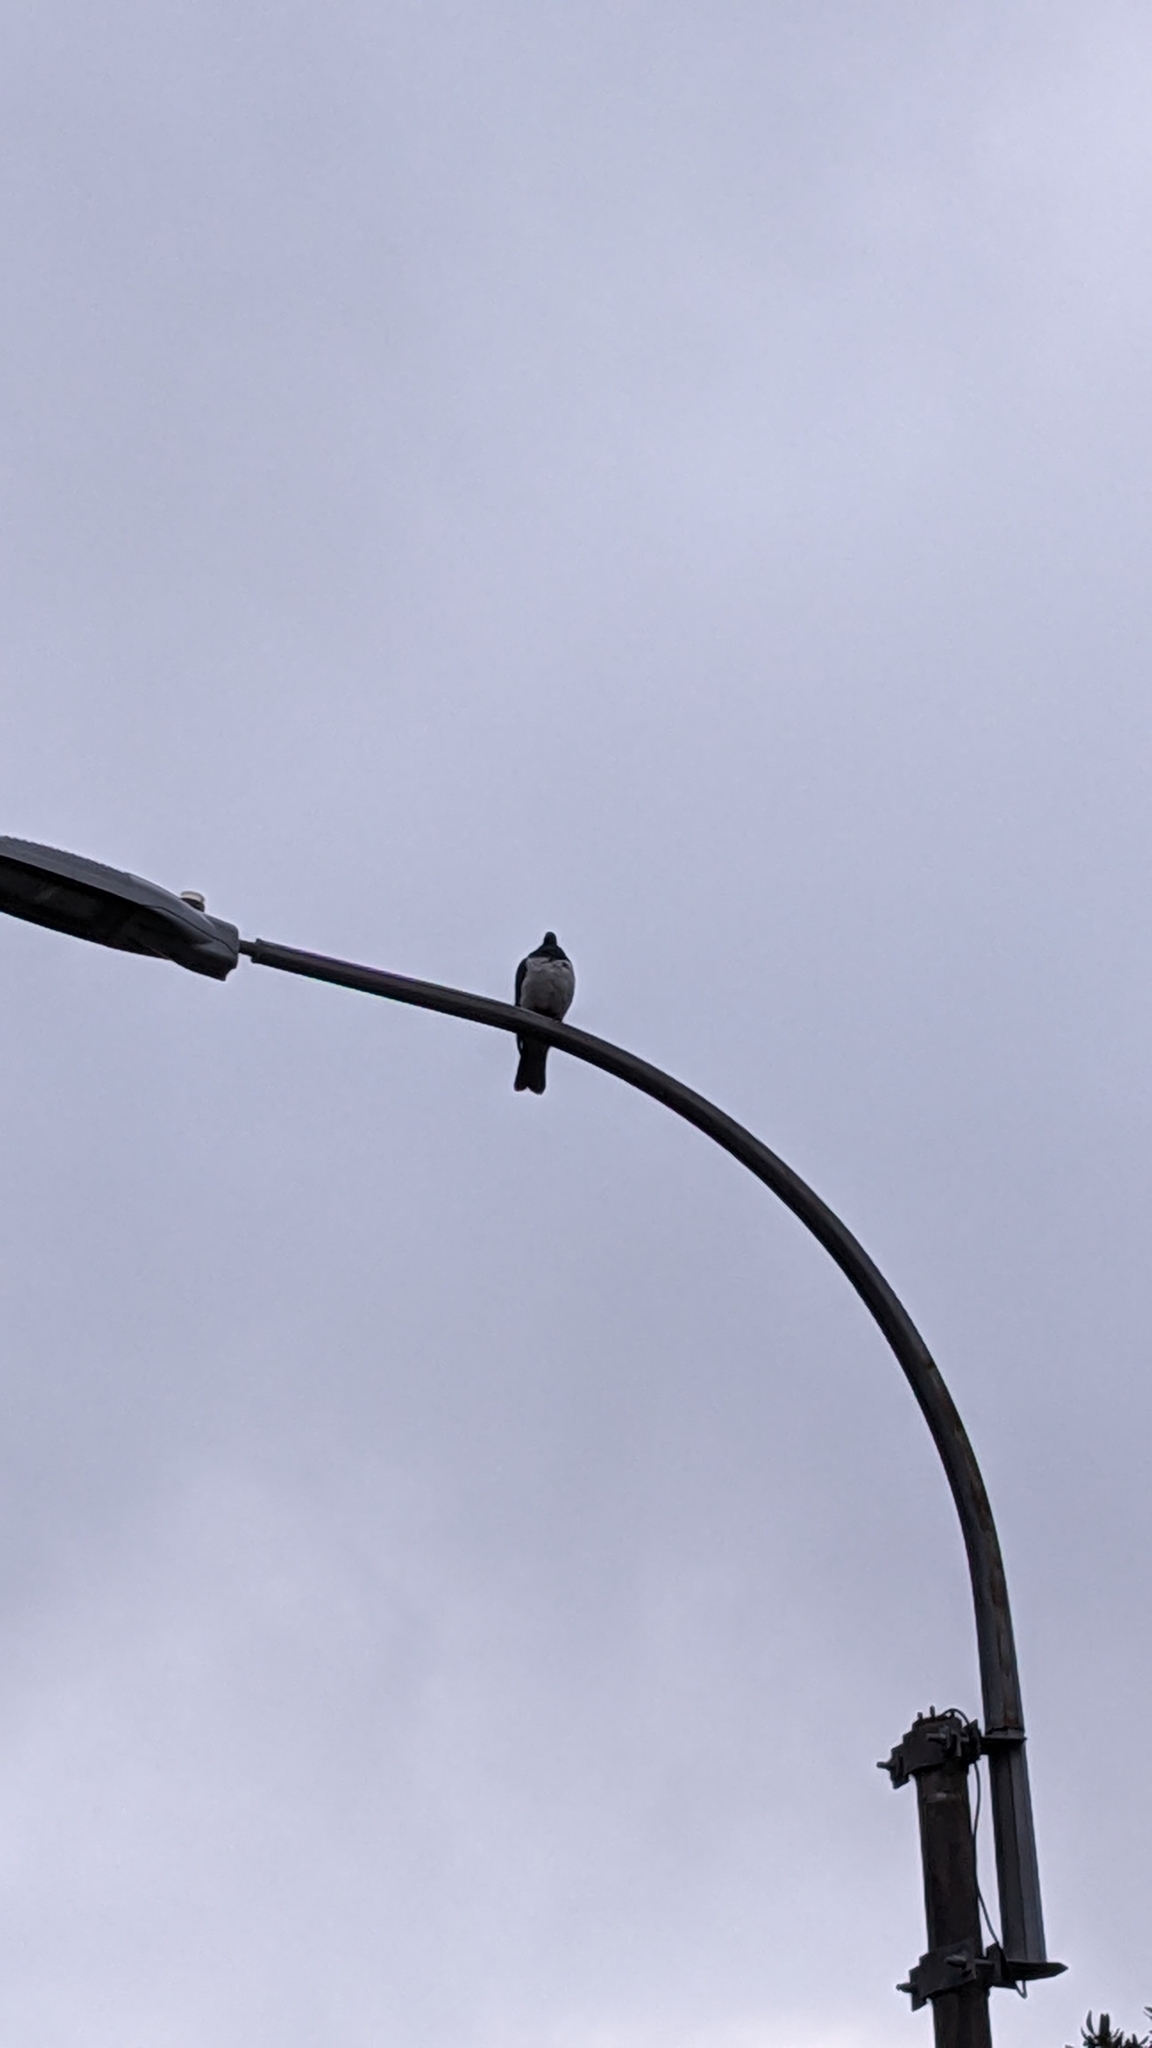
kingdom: Animalia
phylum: Chordata
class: Aves
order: Columbiformes
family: Columbidae
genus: Hemiphaga
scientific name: Hemiphaga novaeseelandiae
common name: New zealand pigeon
